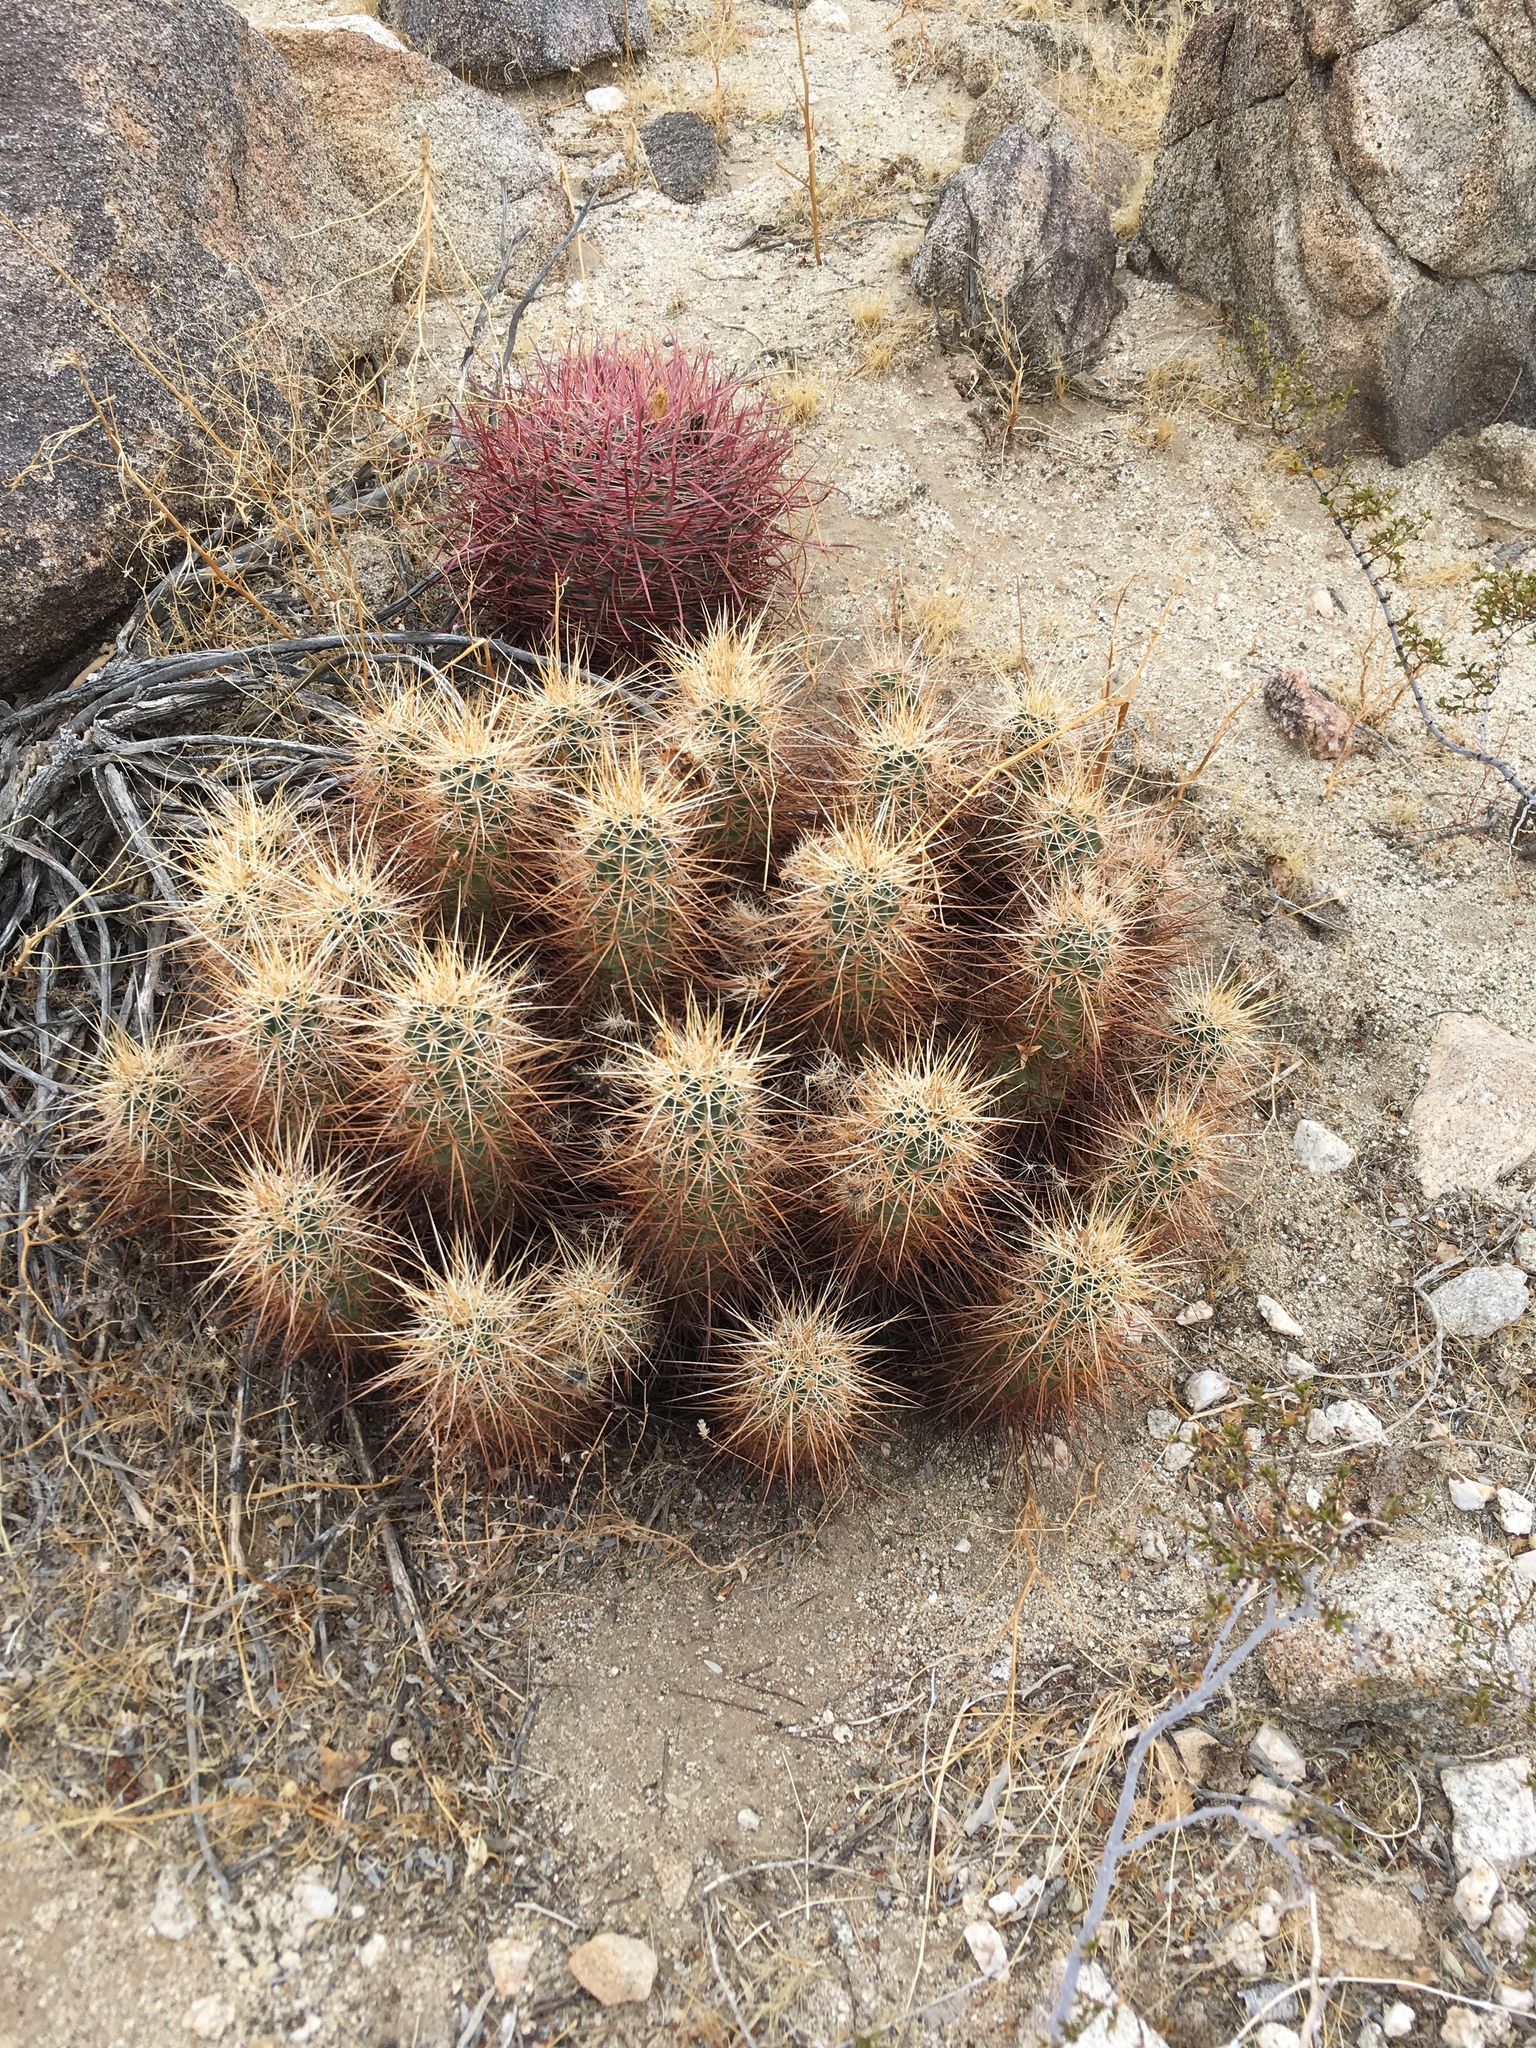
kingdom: Plantae
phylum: Tracheophyta
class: Magnoliopsida
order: Caryophyllales
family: Cactaceae
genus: Echinocereus
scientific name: Echinocereus engelmannii
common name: Engelmann's hedgehog cactus
